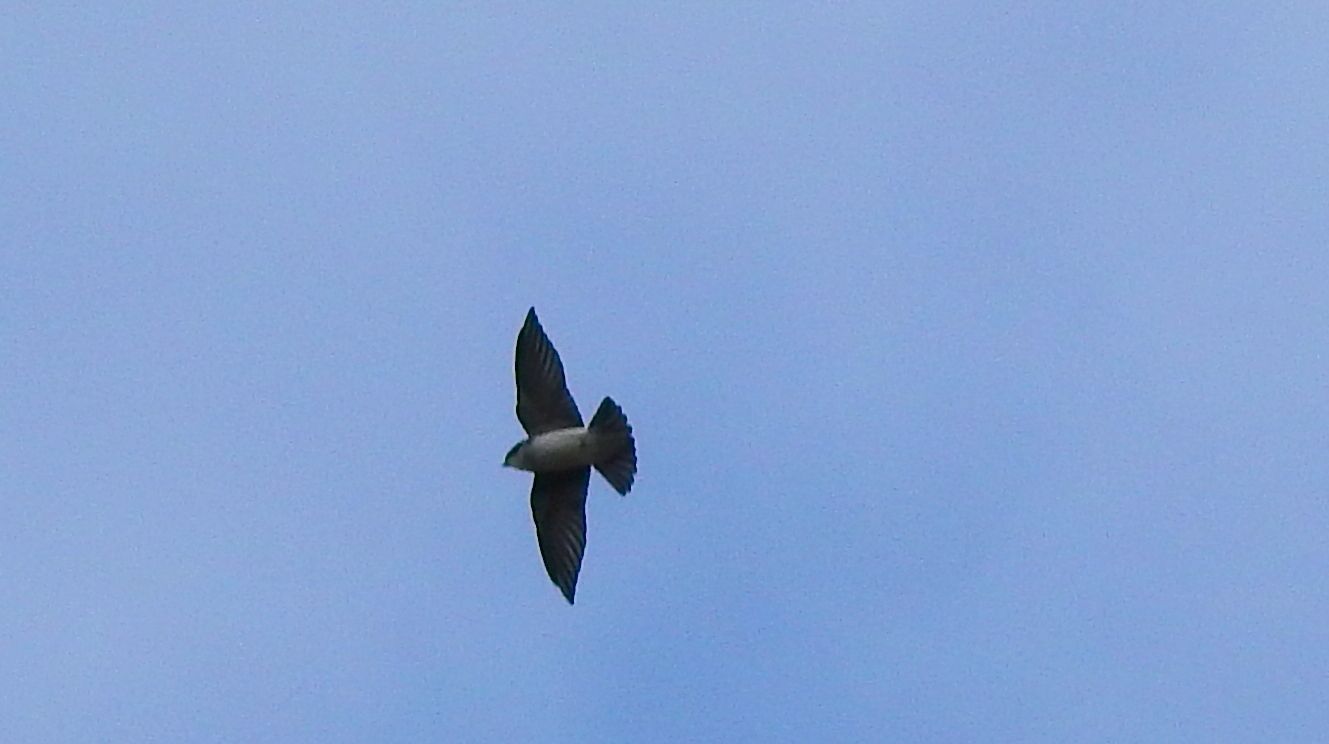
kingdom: Animalia
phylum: Chordata
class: Aves
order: Passeriformes
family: Hirundinidae
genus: Tachycineta
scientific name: Tachycineta leucopyga
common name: Chilean swallow
